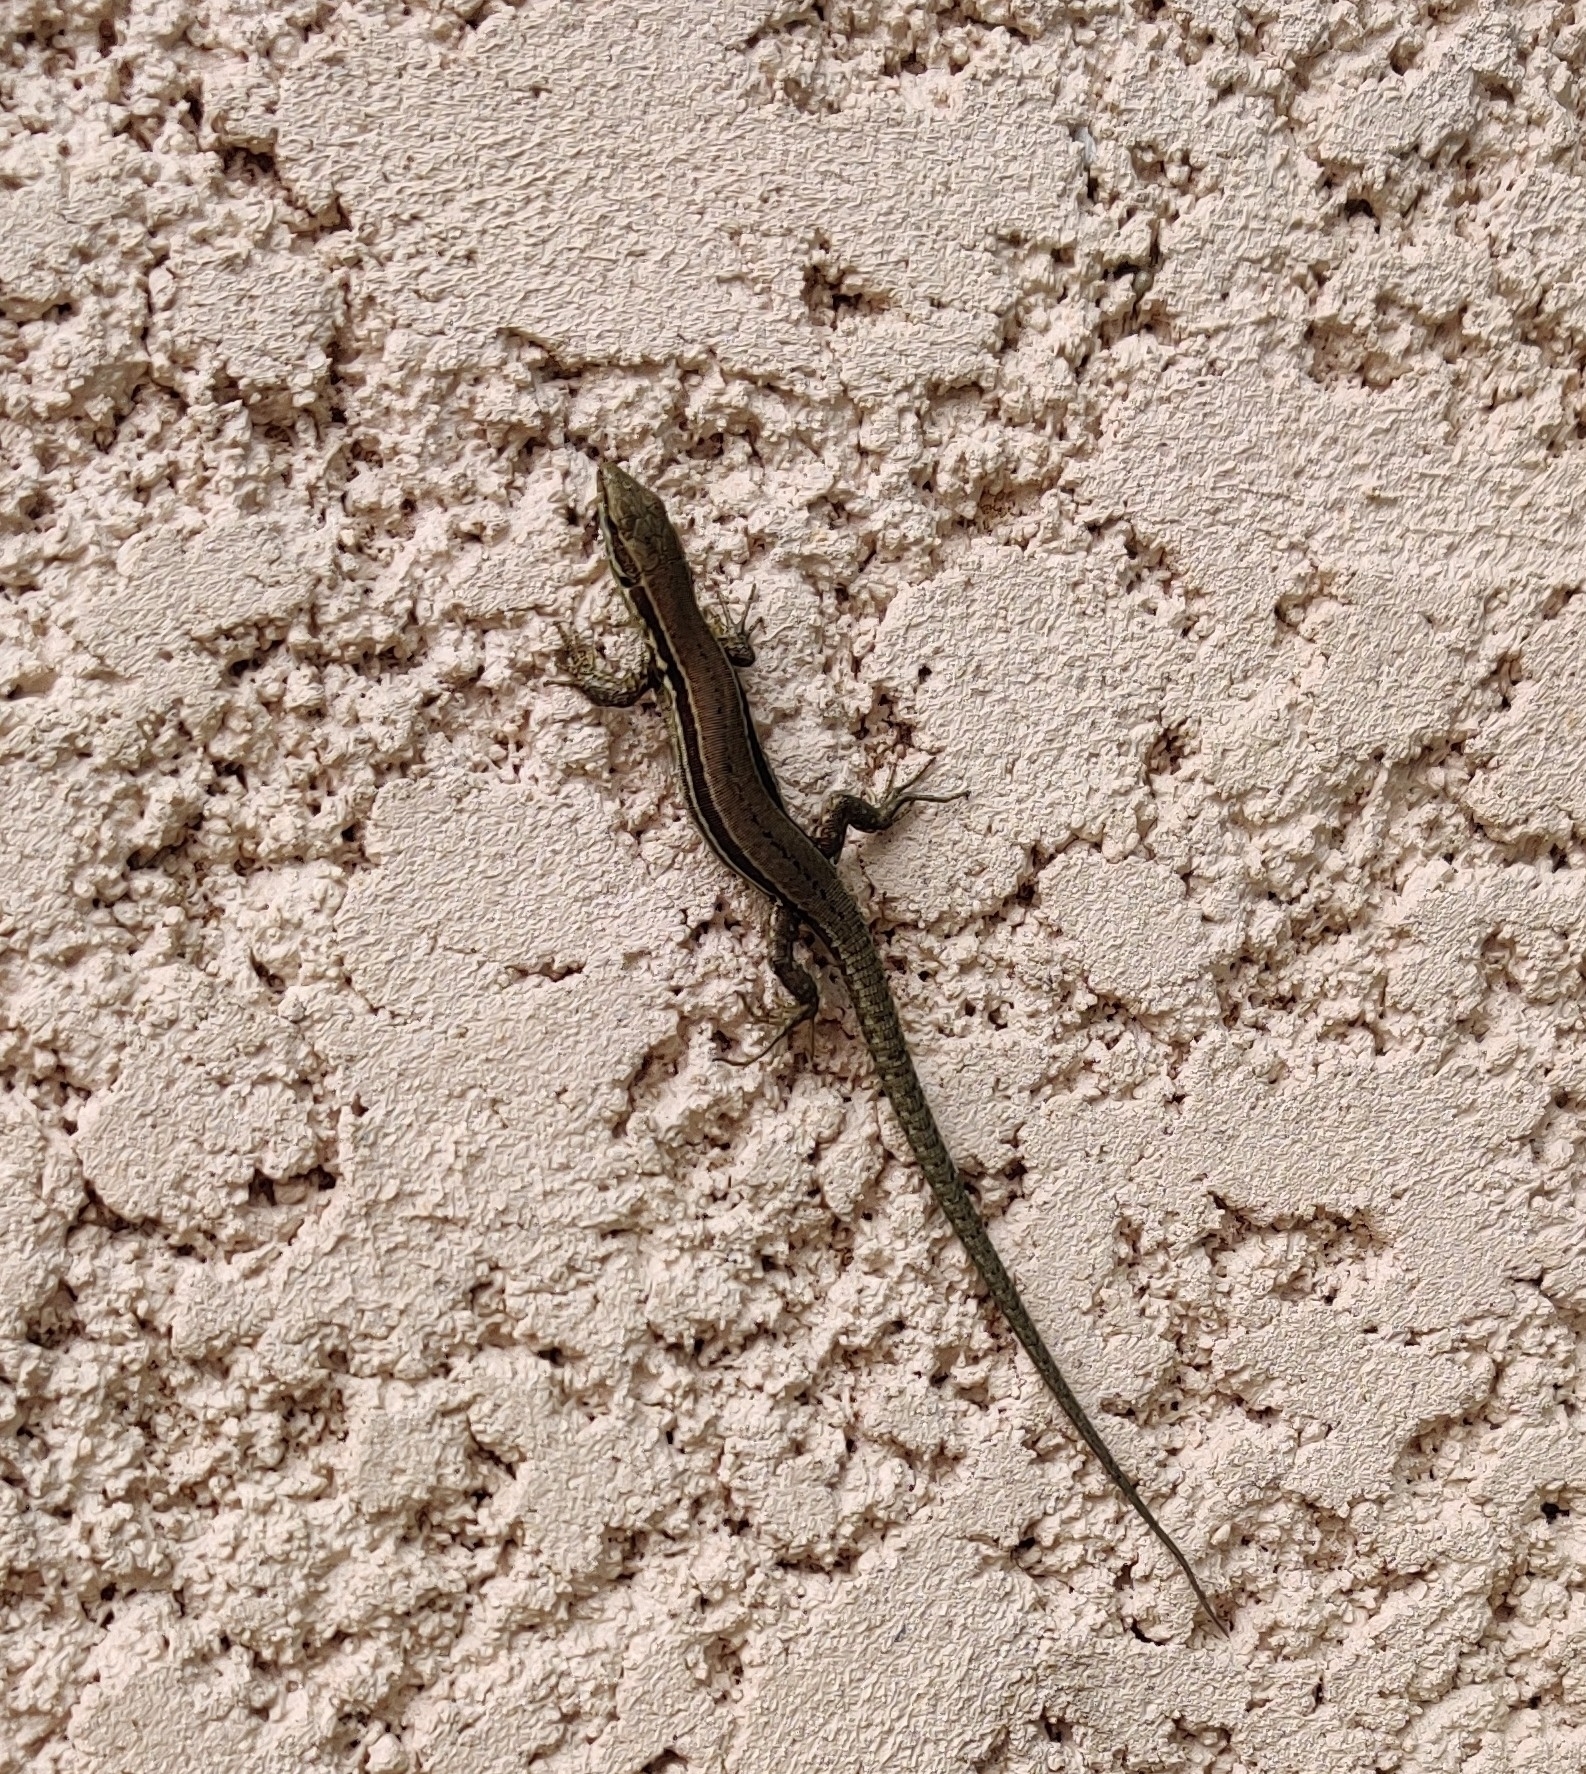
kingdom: Animalia
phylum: Chordata
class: Squamata
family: Lacertidae
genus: Podarcis
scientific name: Podarcis muralis
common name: Common wall lizard
